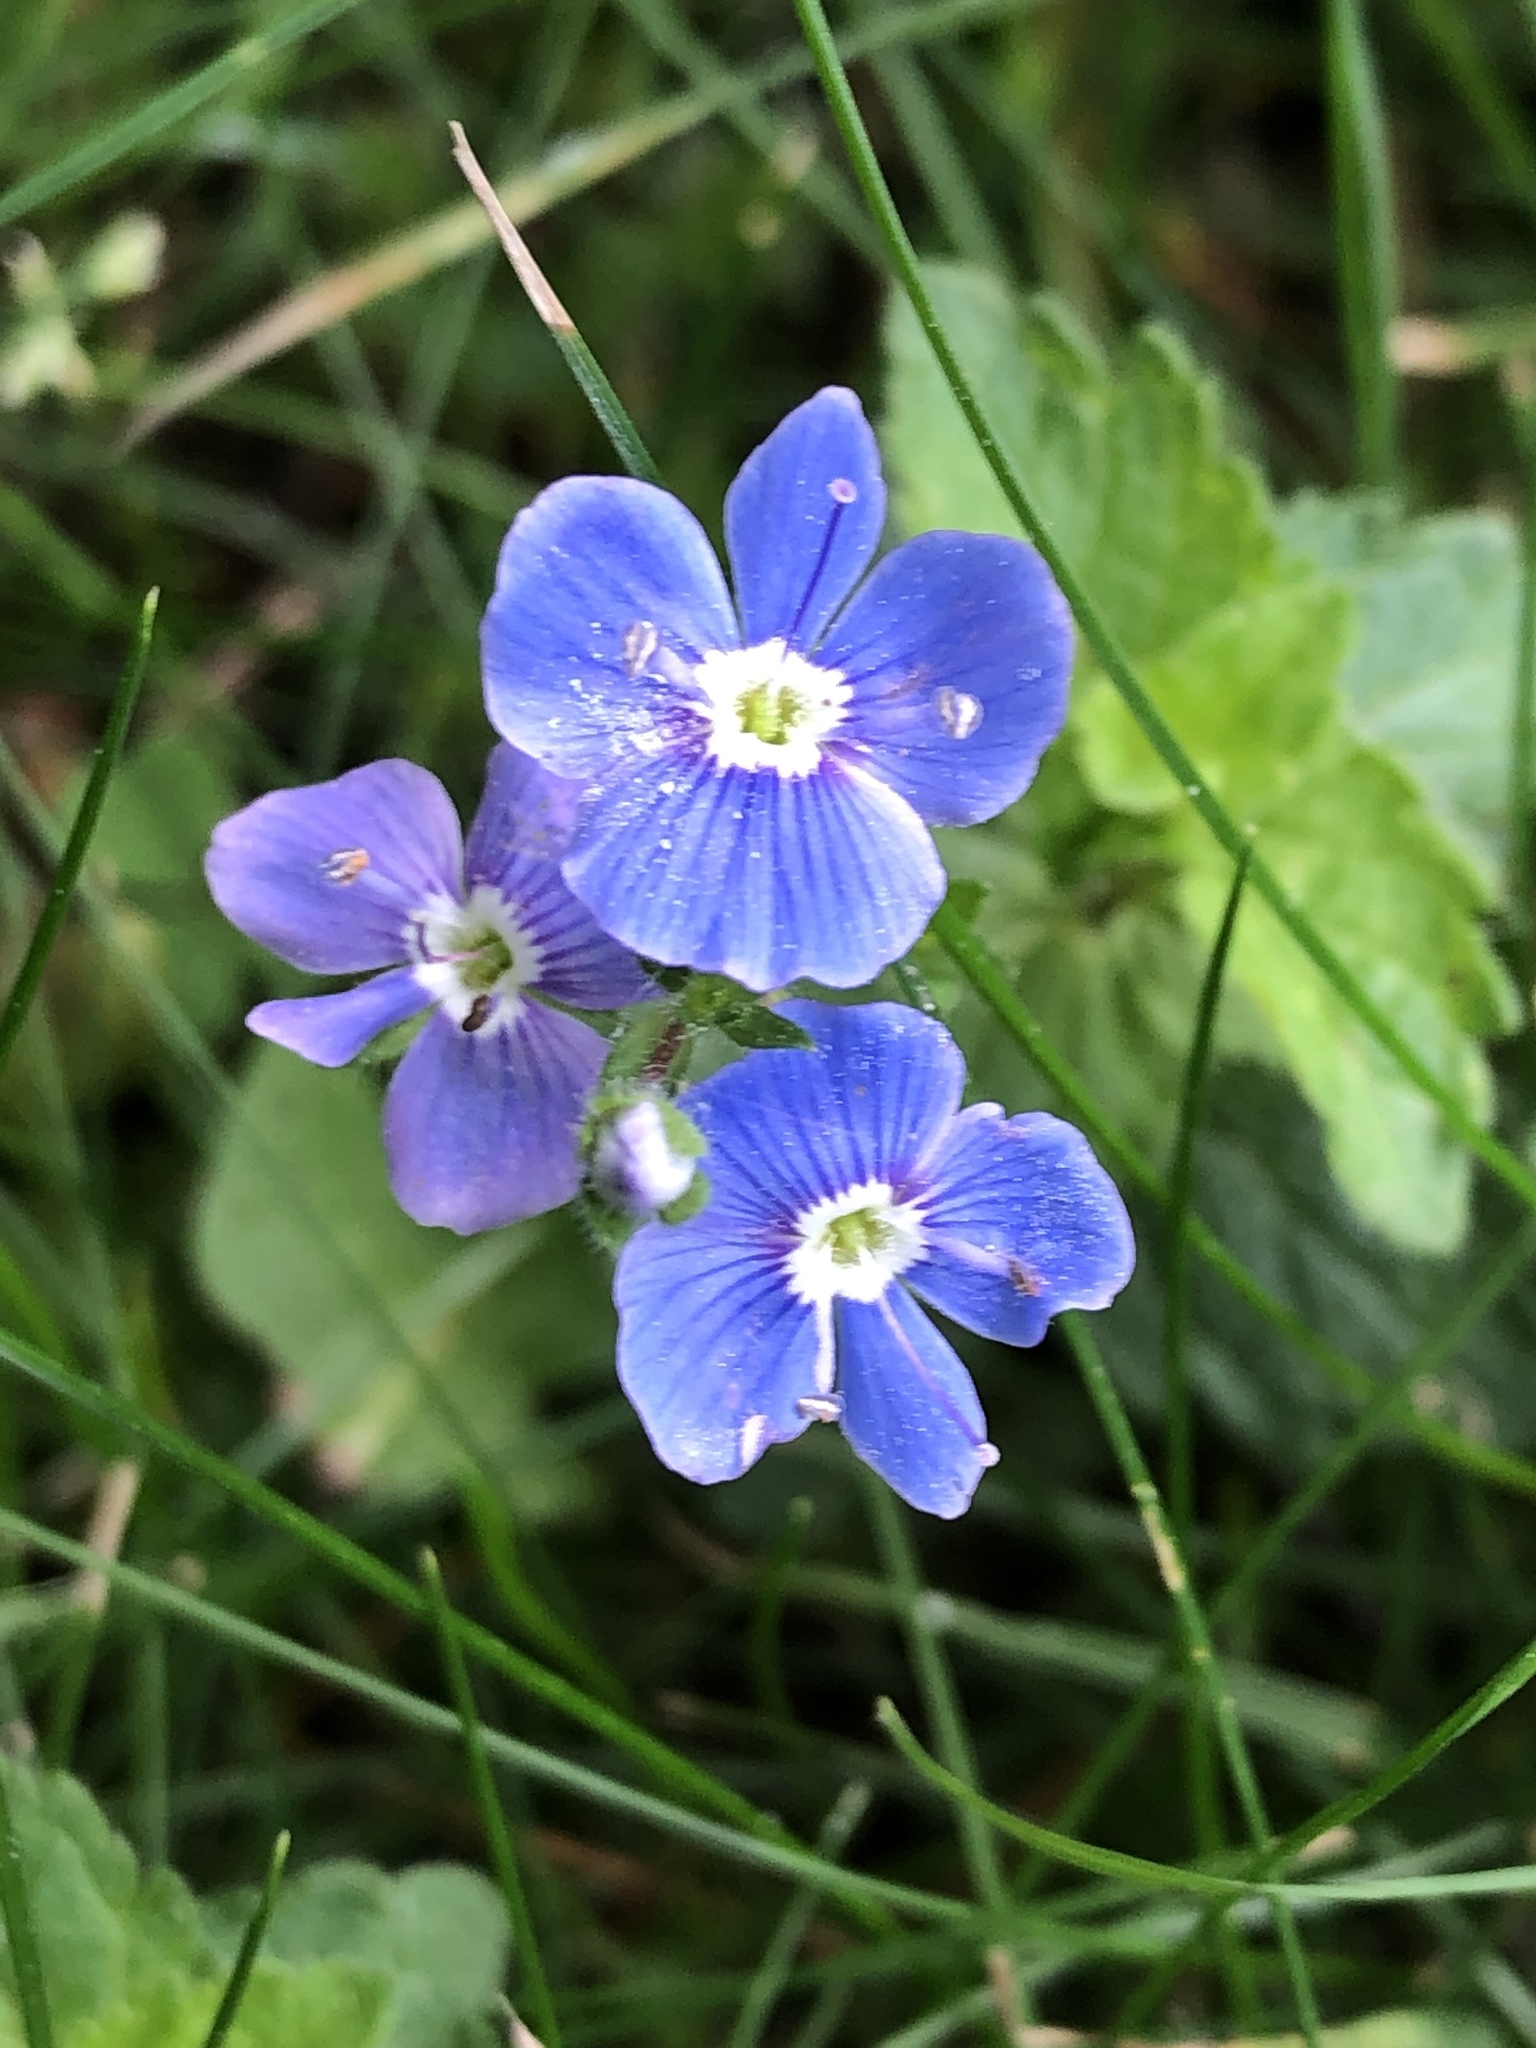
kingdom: Plantae
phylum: Tracheophyta
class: Magnoliopsida
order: Lamiales
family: Plantaginaceae
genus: Veronica
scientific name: Veronica chamaedrys
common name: Germander speedwell
